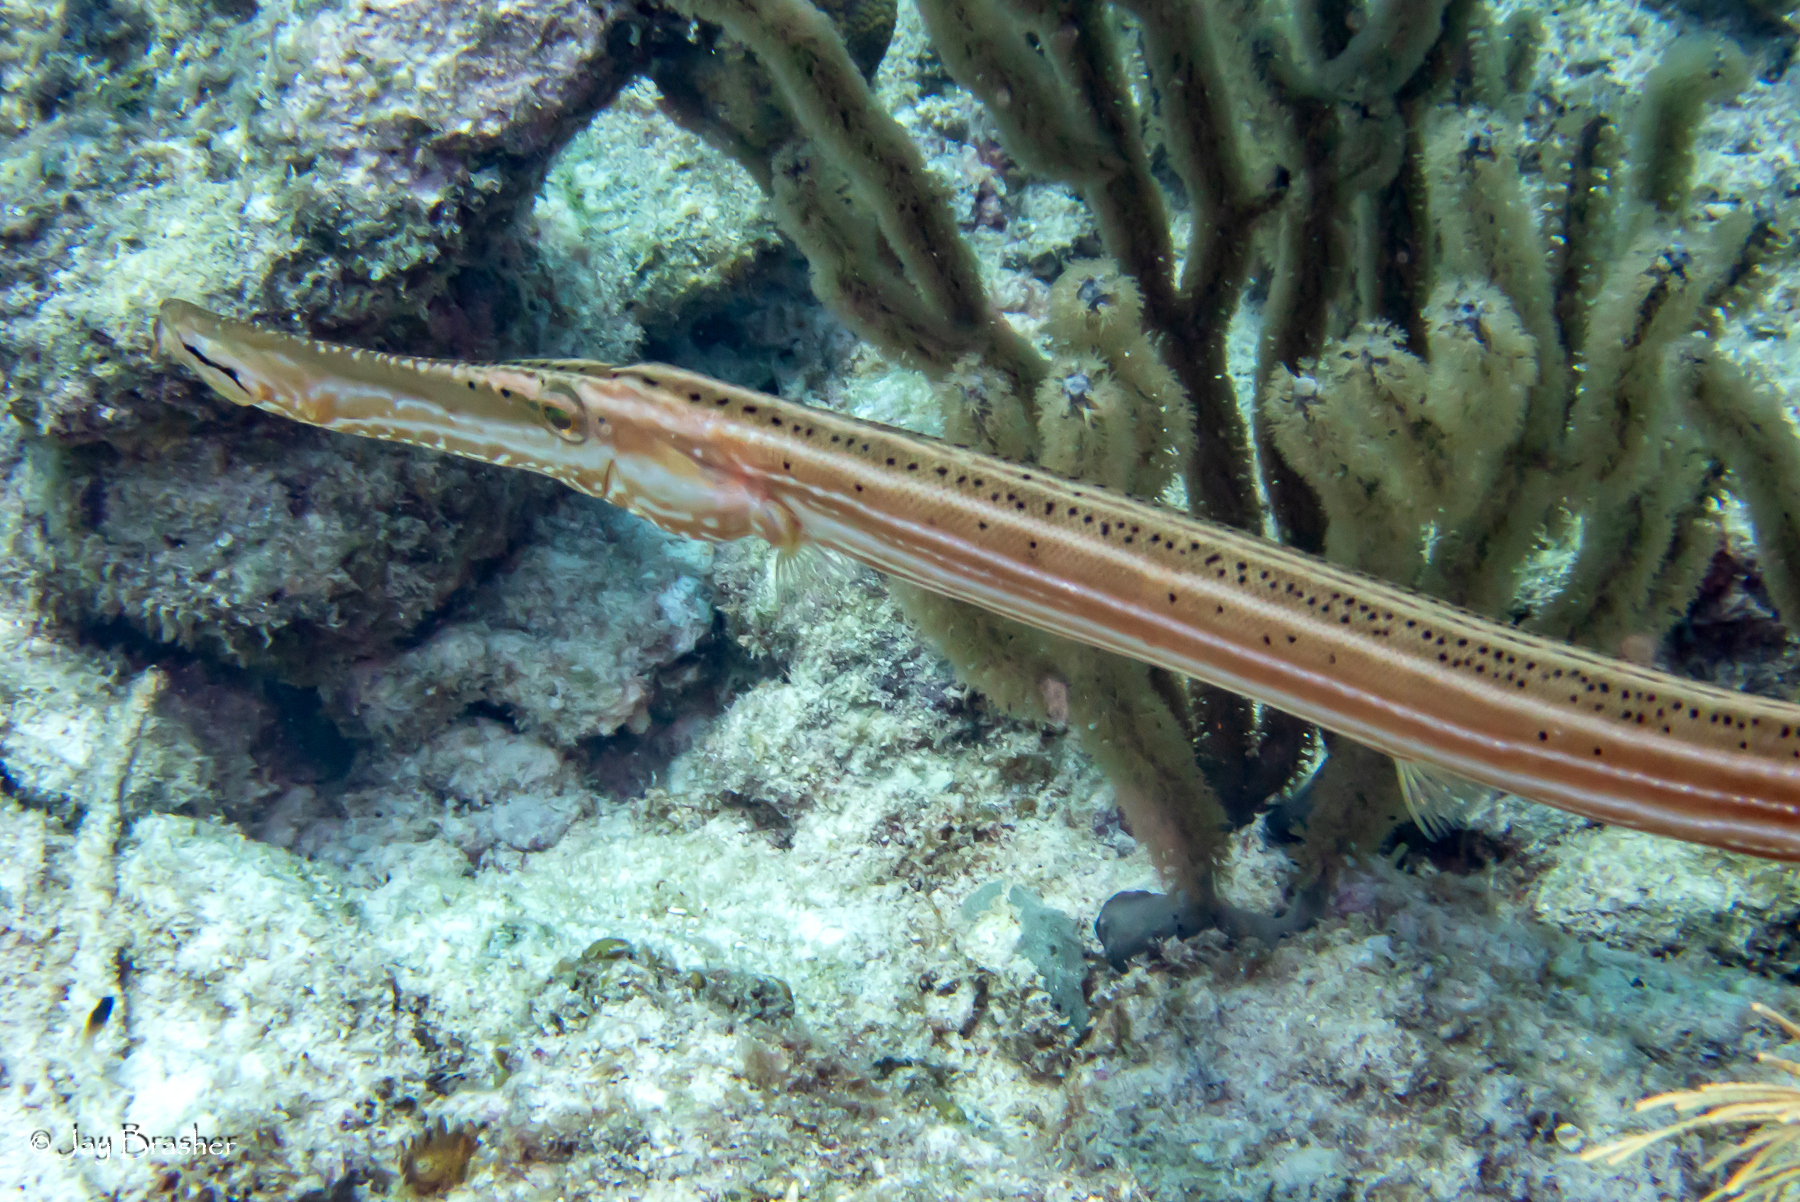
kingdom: Animalia
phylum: Chordata
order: Syngnathiformes
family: Aulostomidae
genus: Aulostomus
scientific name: Aulostomus maculatus
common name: West atlantic trumpetfish
